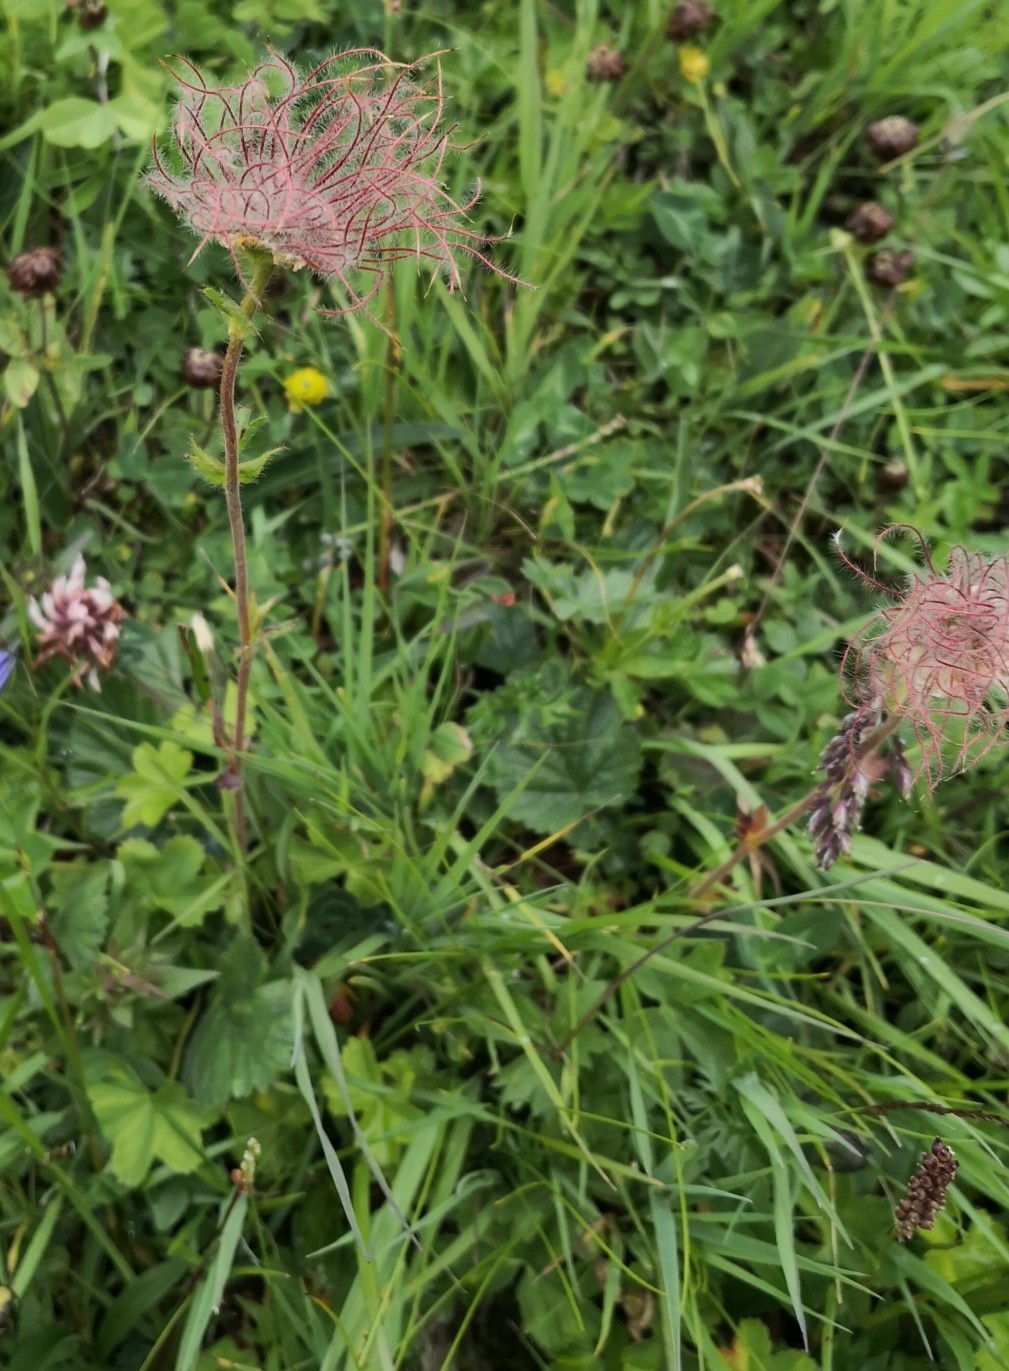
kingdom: Plantae
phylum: Tracheophyta
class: Magnoliopsida
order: Rosales
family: Rosaceae
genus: Geum
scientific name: Geum montanum
